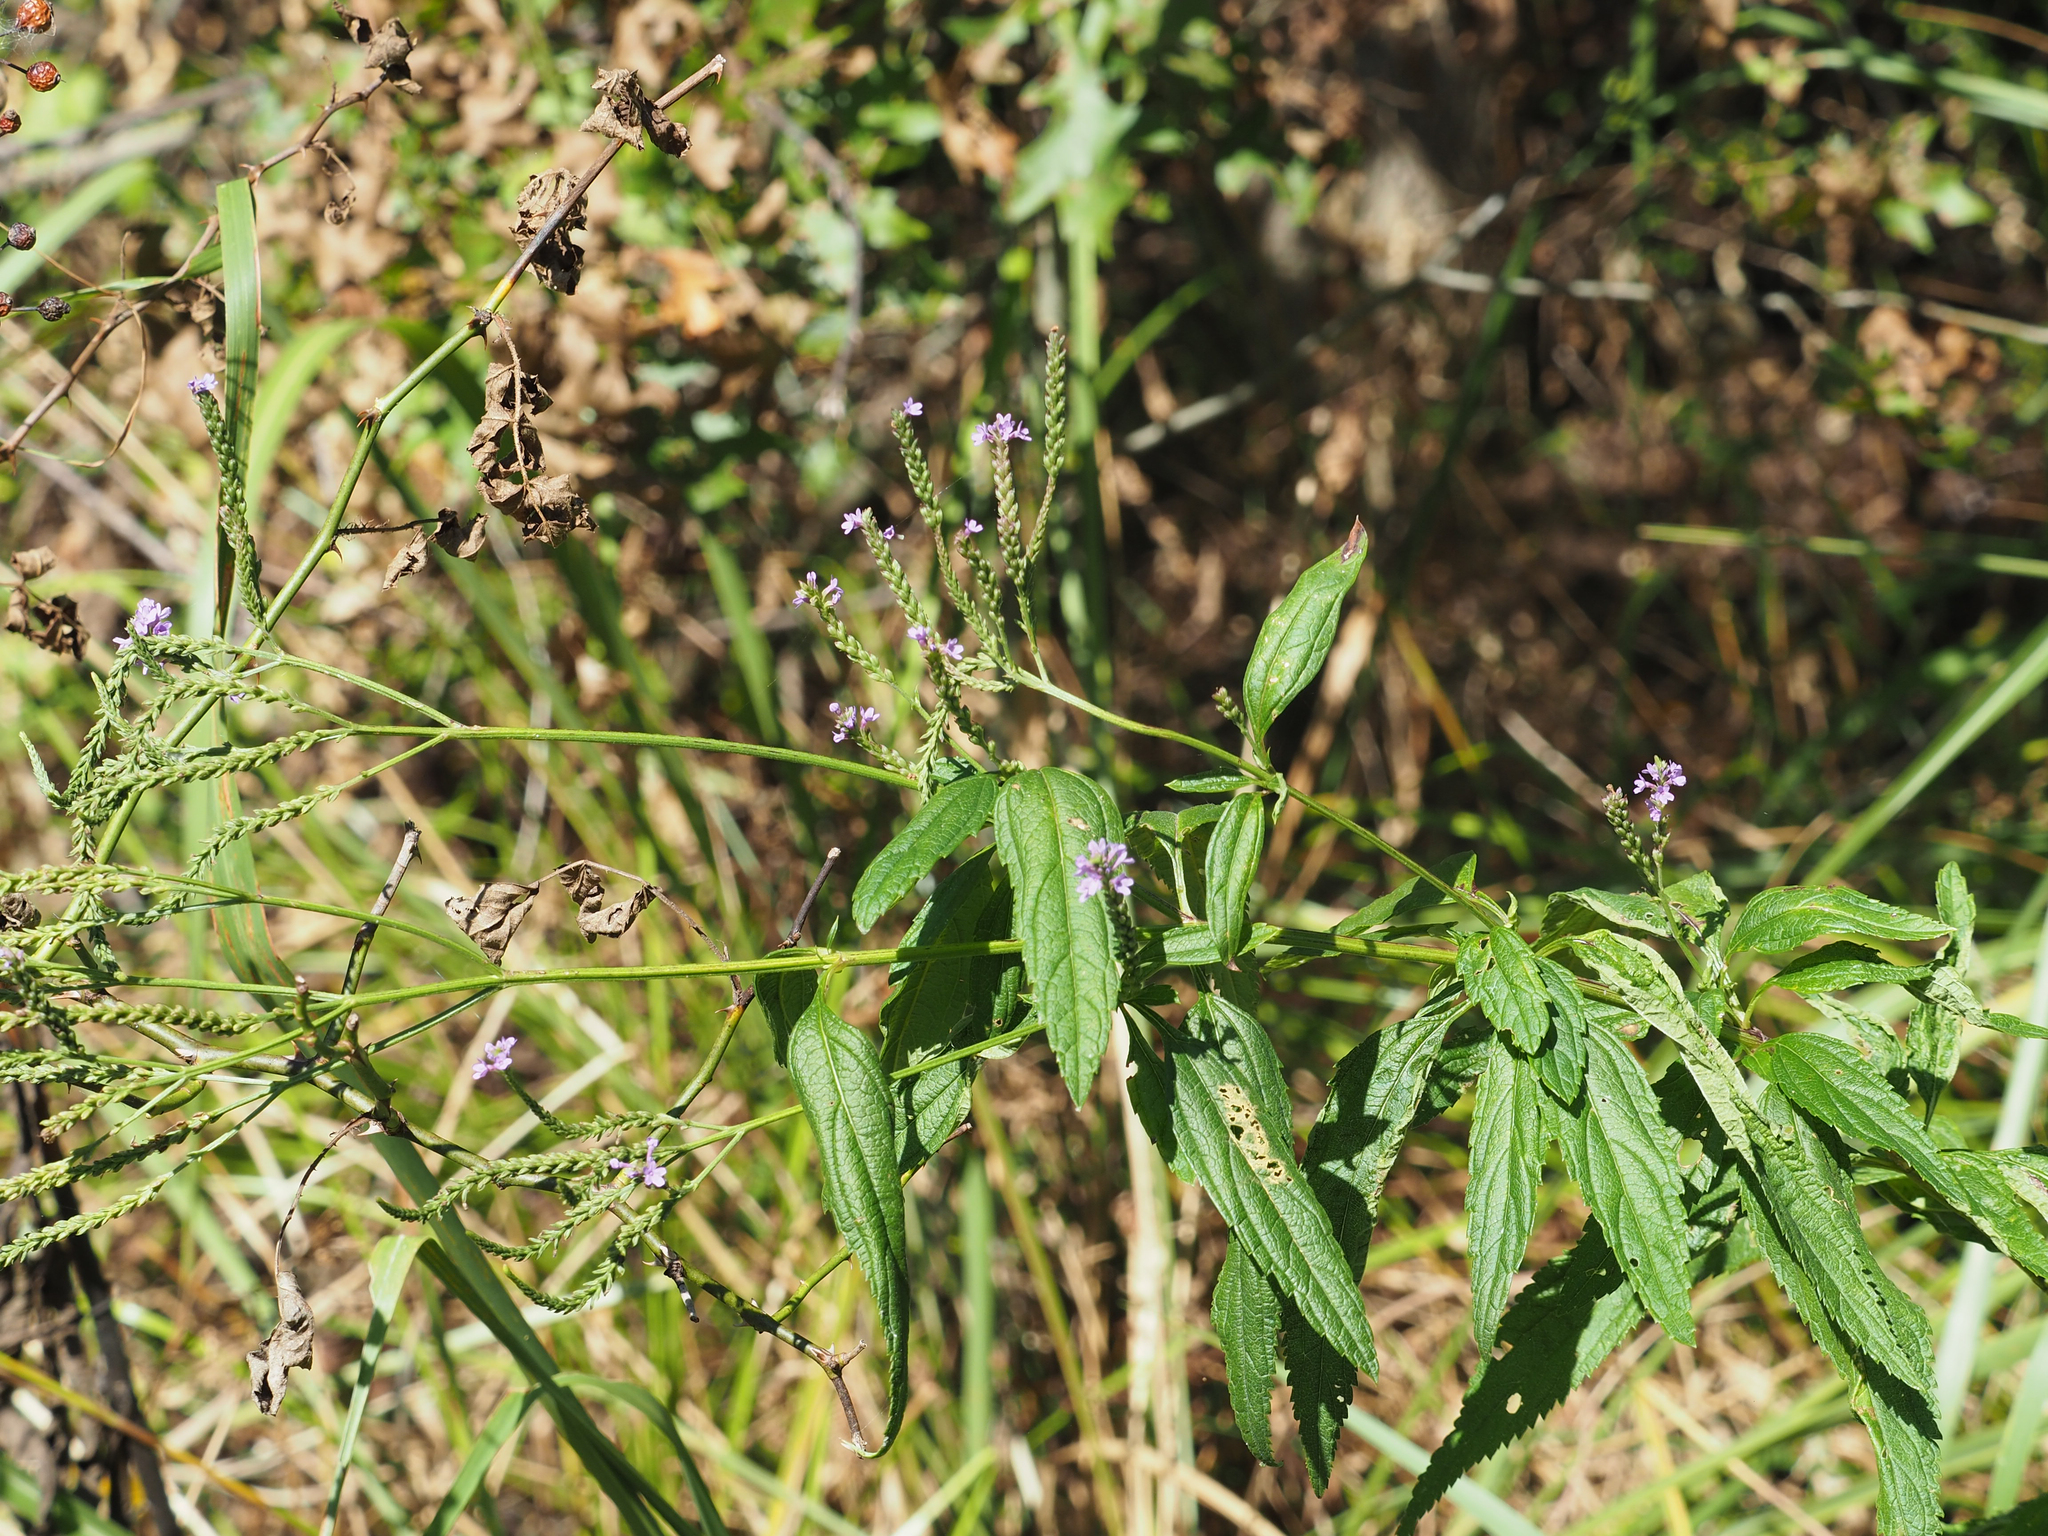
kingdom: Plantae
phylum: Tracheophyta
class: Magnoliopsida
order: Lamiales
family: Verbenaceae
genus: Verbena
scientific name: Verbena hastata
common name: American blue vervain
